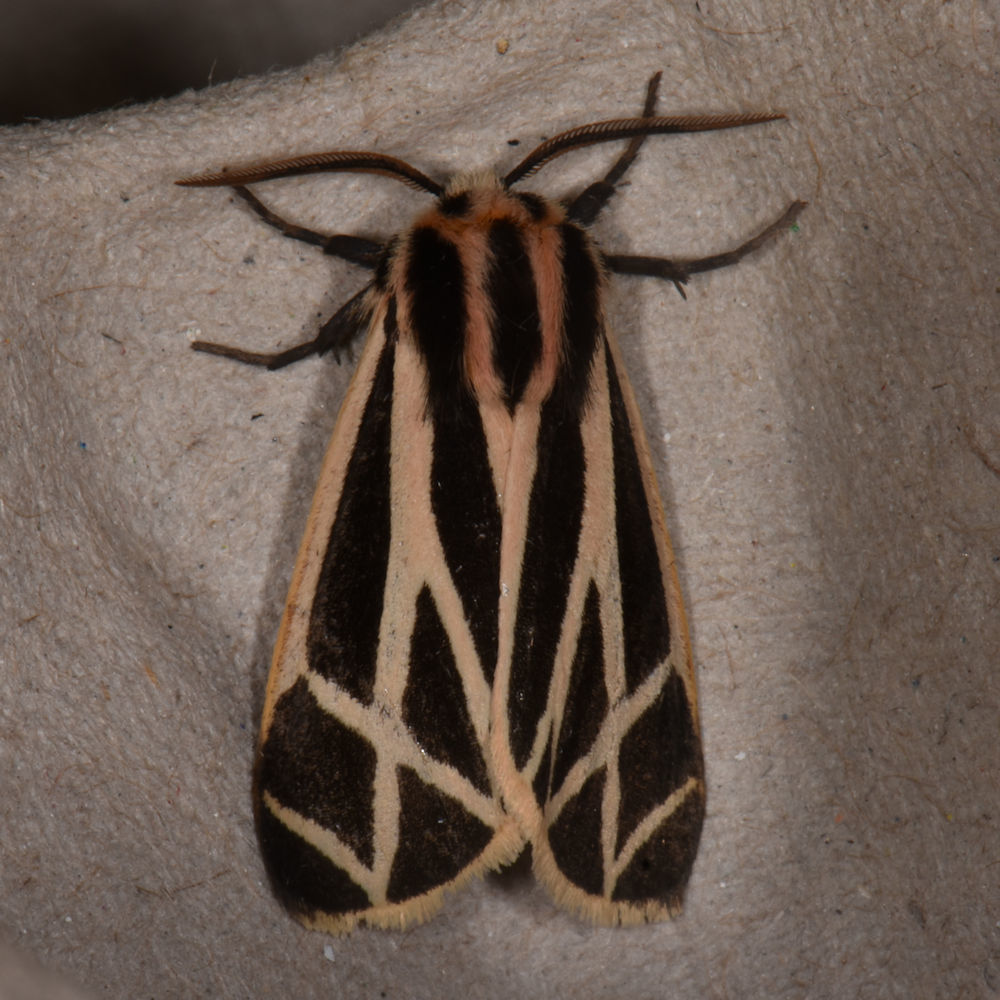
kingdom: Animalia
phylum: Arthropoda
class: Insecta
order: Lepidoptera
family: Erebidae
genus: Apantesis
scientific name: Apantesis phalerata
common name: Harnessed tiger moth
